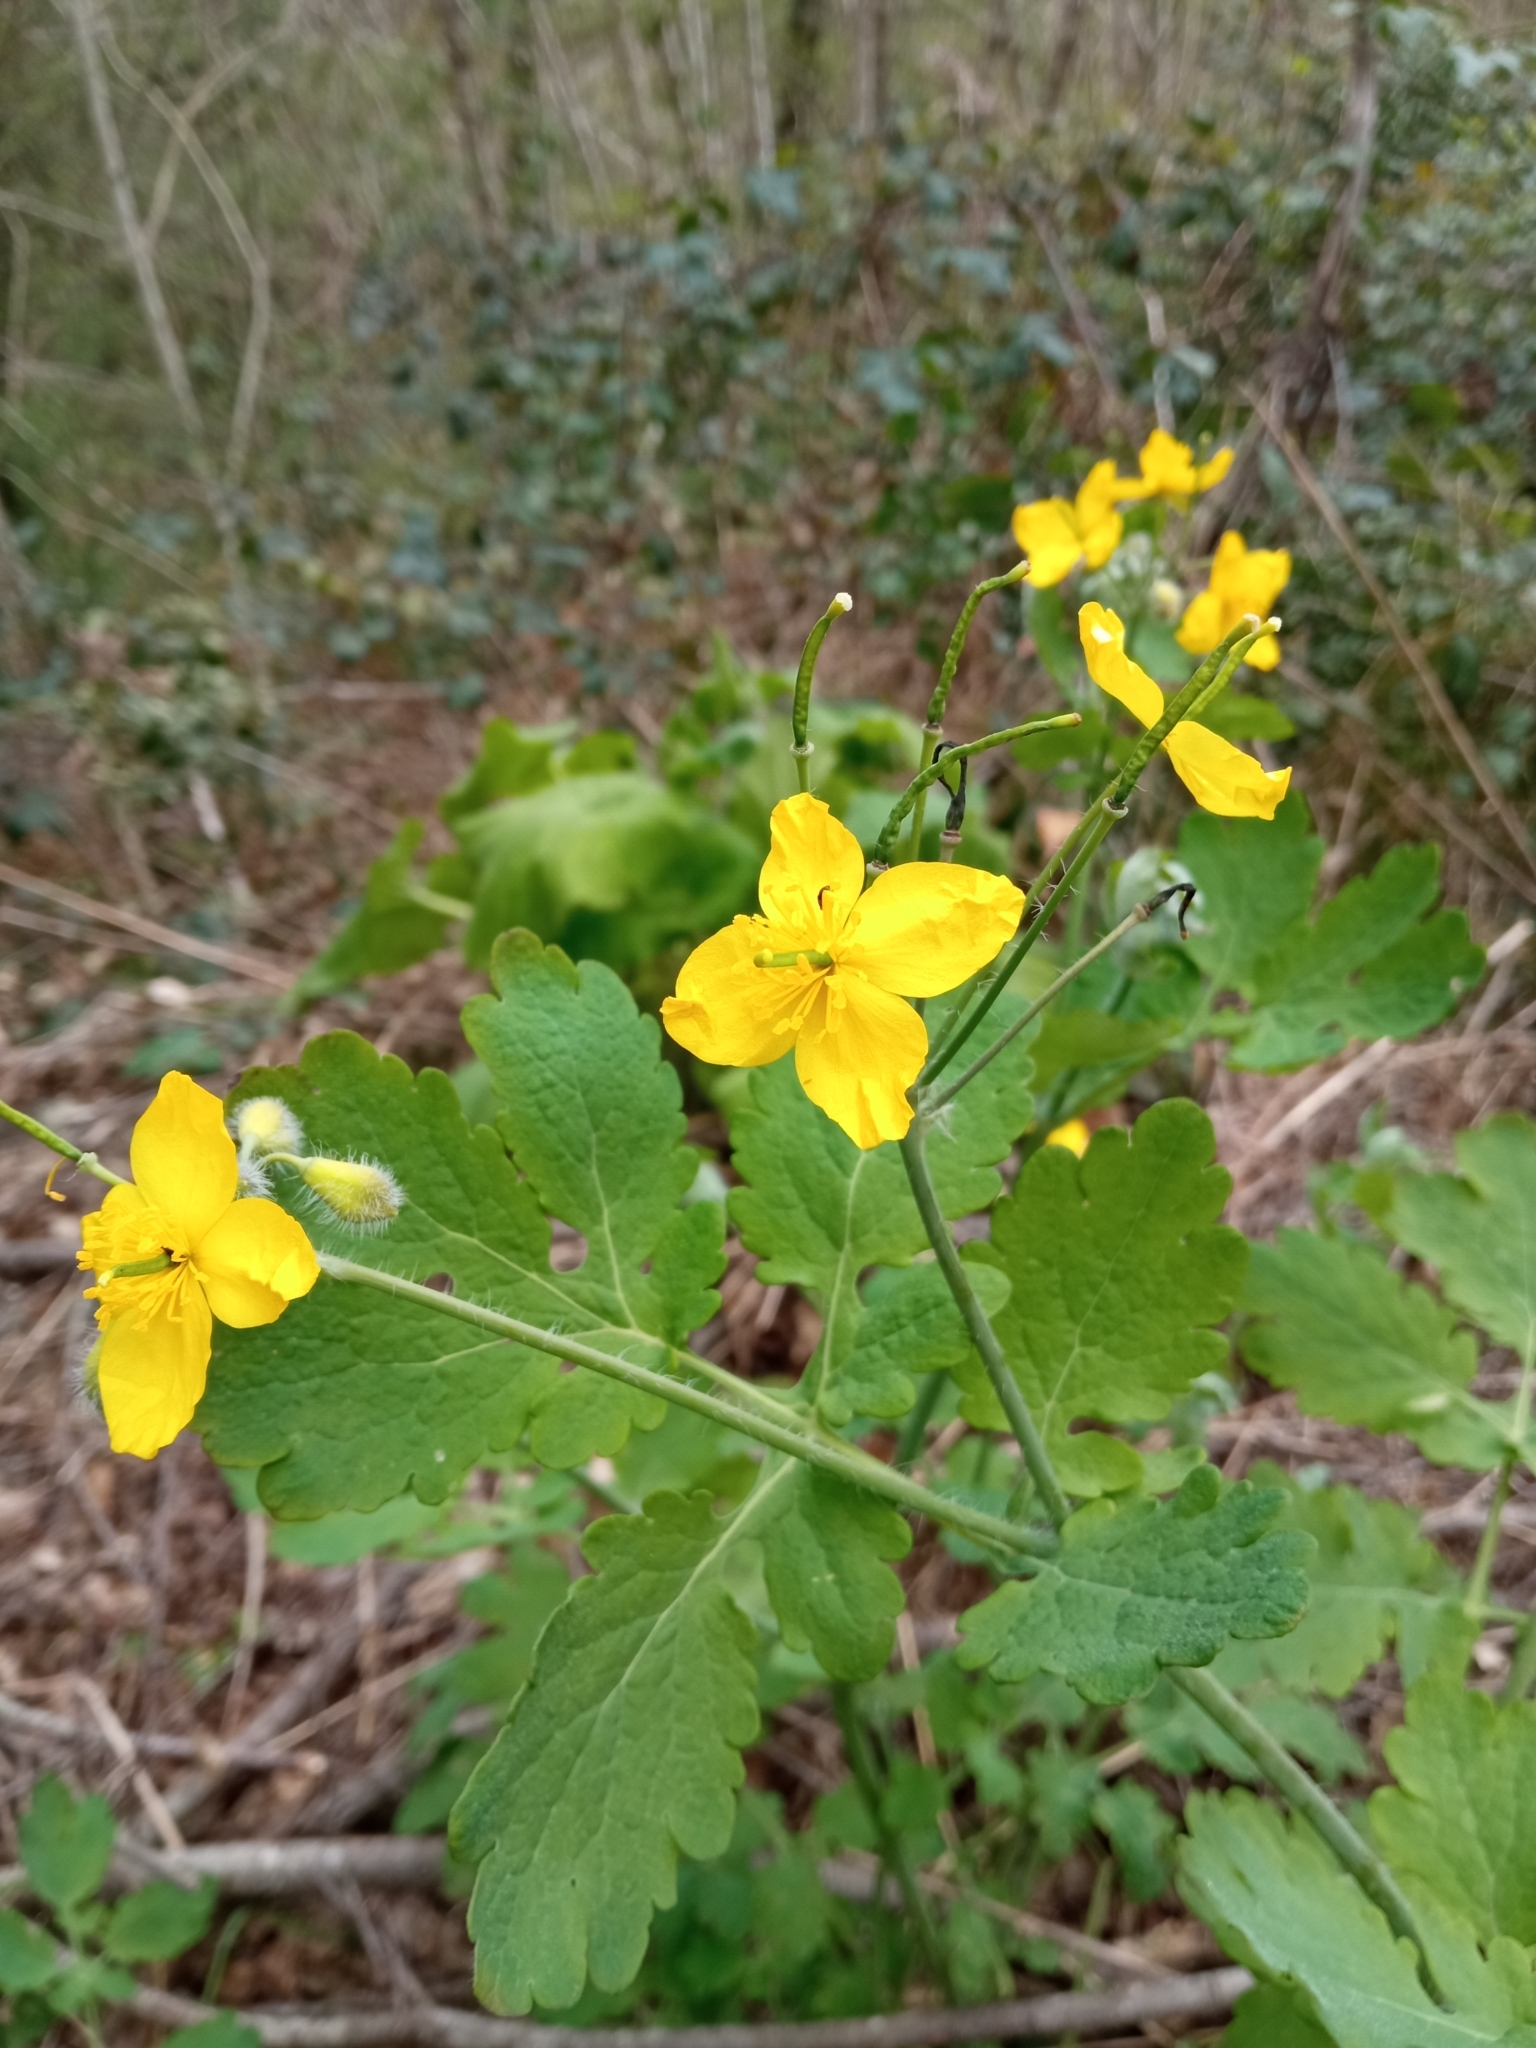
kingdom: Plantae
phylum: Tracheophyta
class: Magnoliopsida
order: Ranunculales
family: Papaveraceae
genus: Chelidonium
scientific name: Chelidonium majus
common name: Greater celandine
